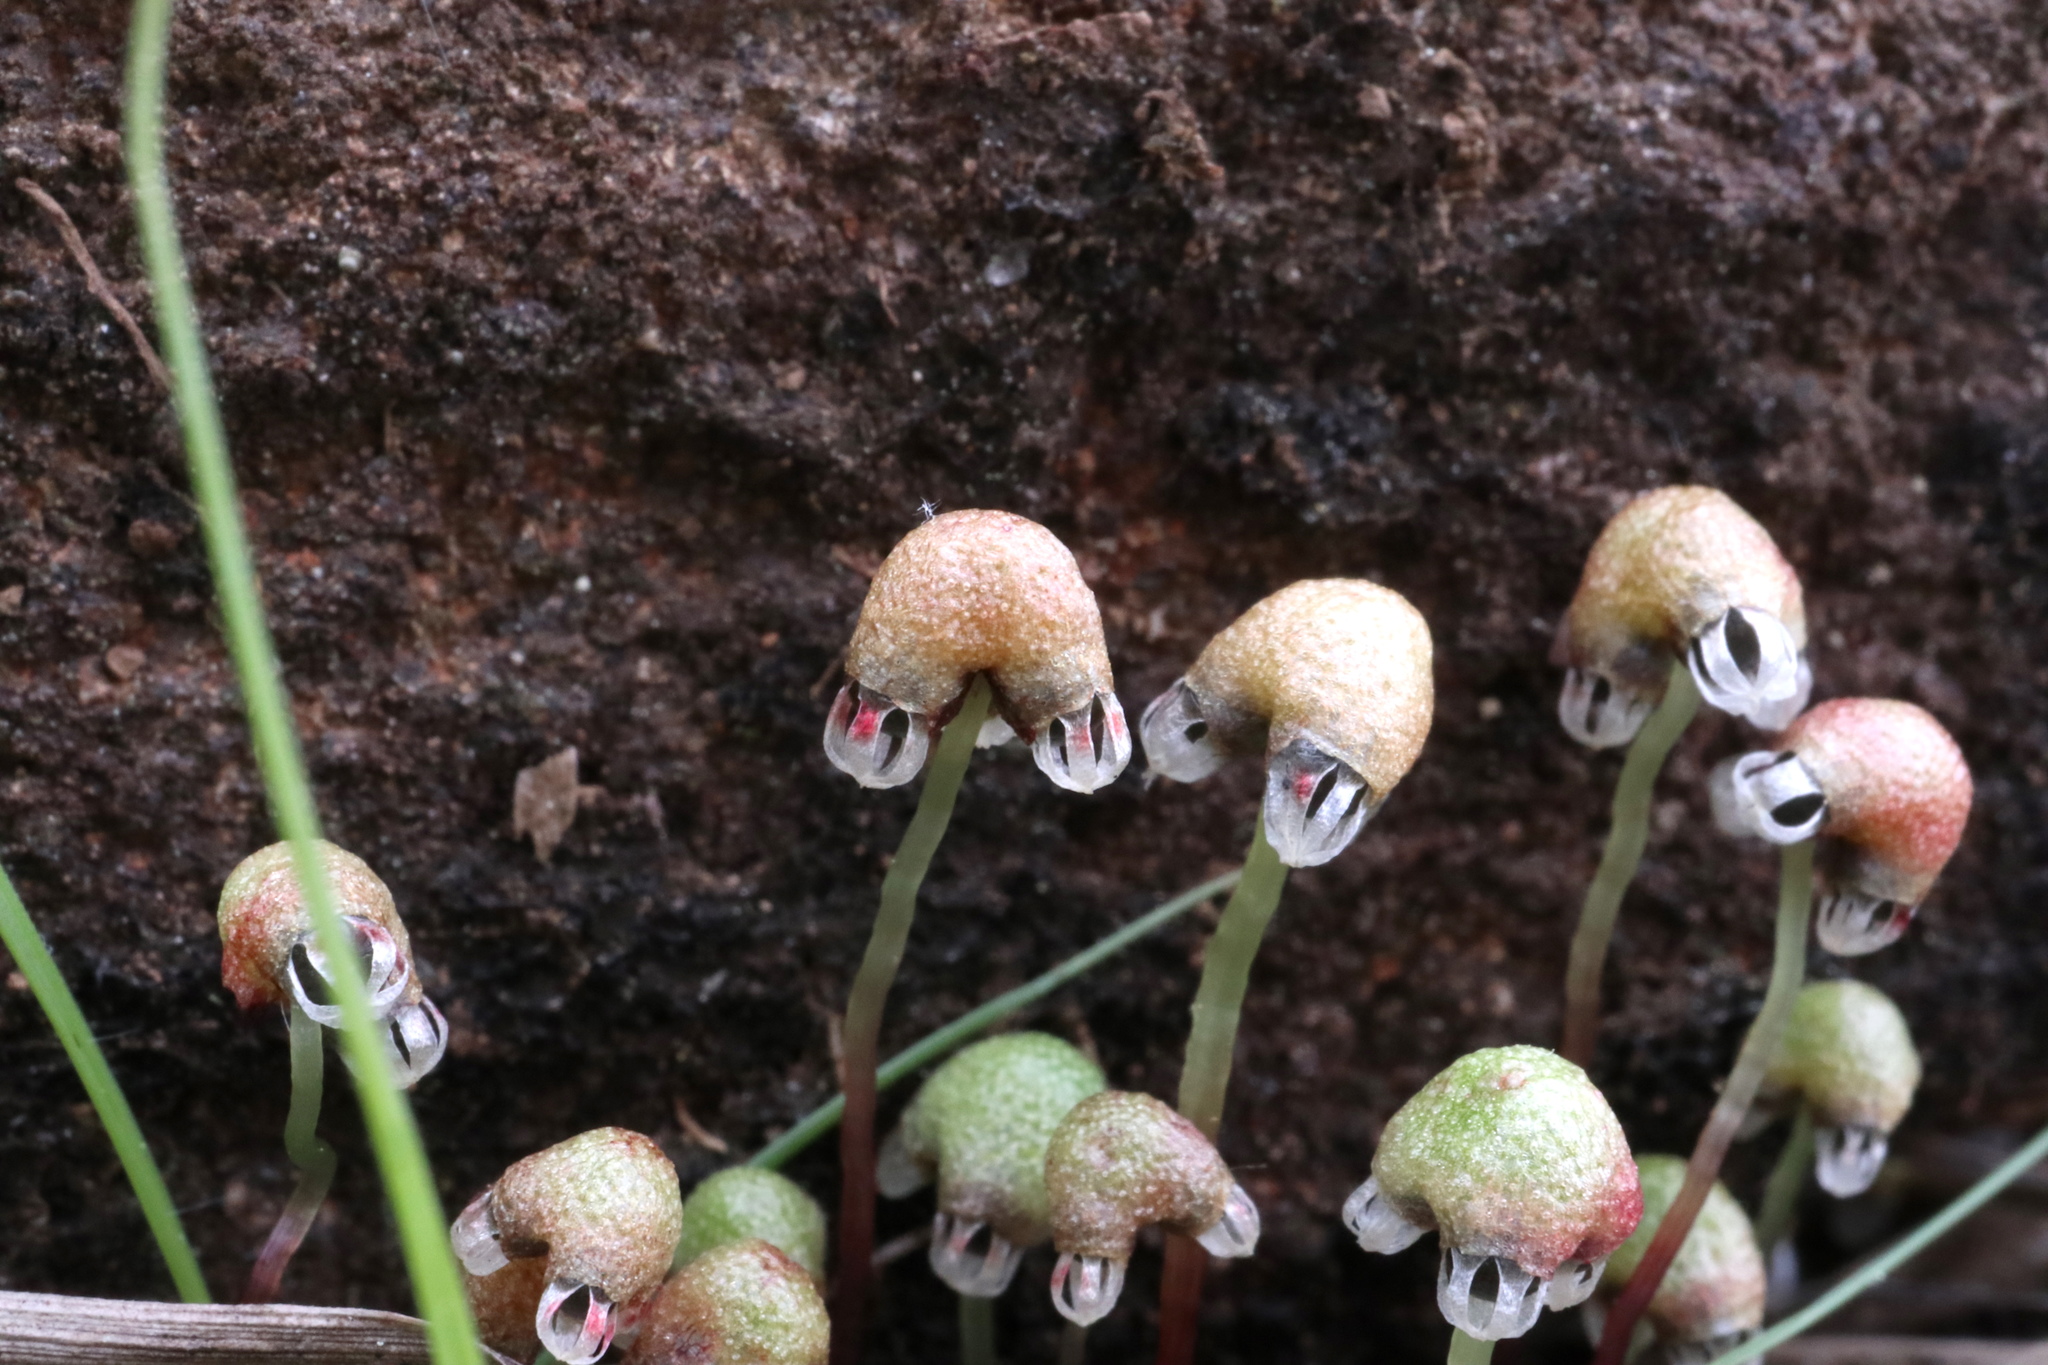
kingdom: Plantae
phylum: Marchantiophyta
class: Marchantiopsida
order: Marchantiales
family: Aytoniaceae
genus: Asterella
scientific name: Asterella tenella
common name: Delicate starwort
